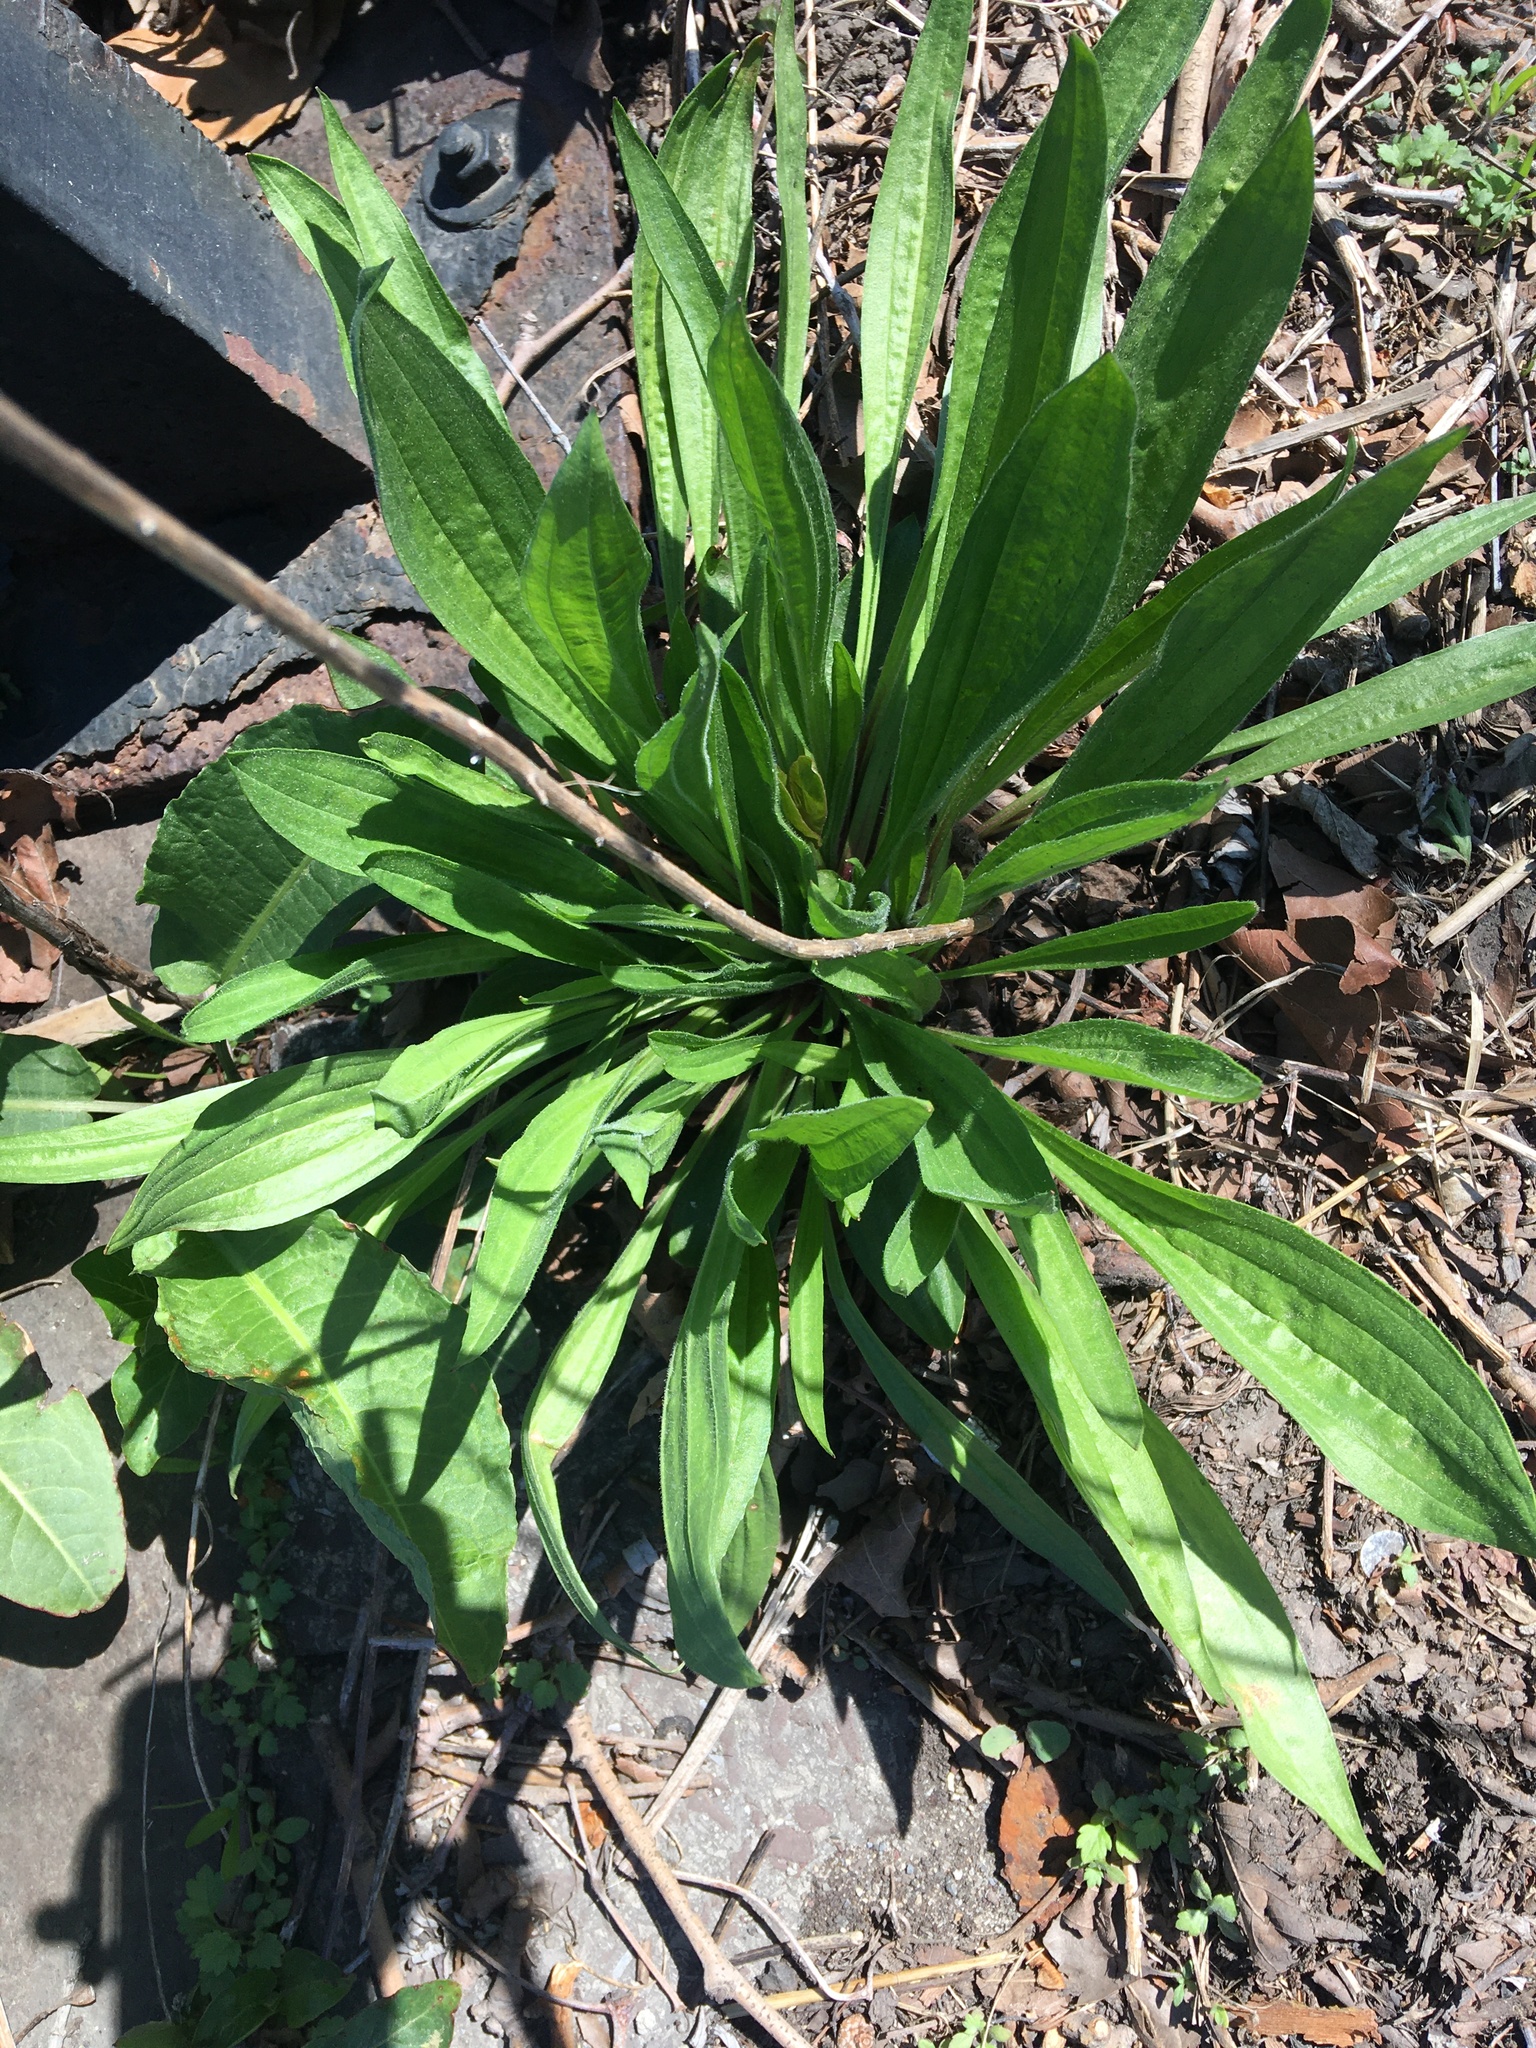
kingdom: Plantae
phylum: Tracheophyta
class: Magnoliopsida
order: Lamiales
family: Plantaginaceae
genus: Plantago
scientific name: Plantago lanceolata
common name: Ribwort plantain
